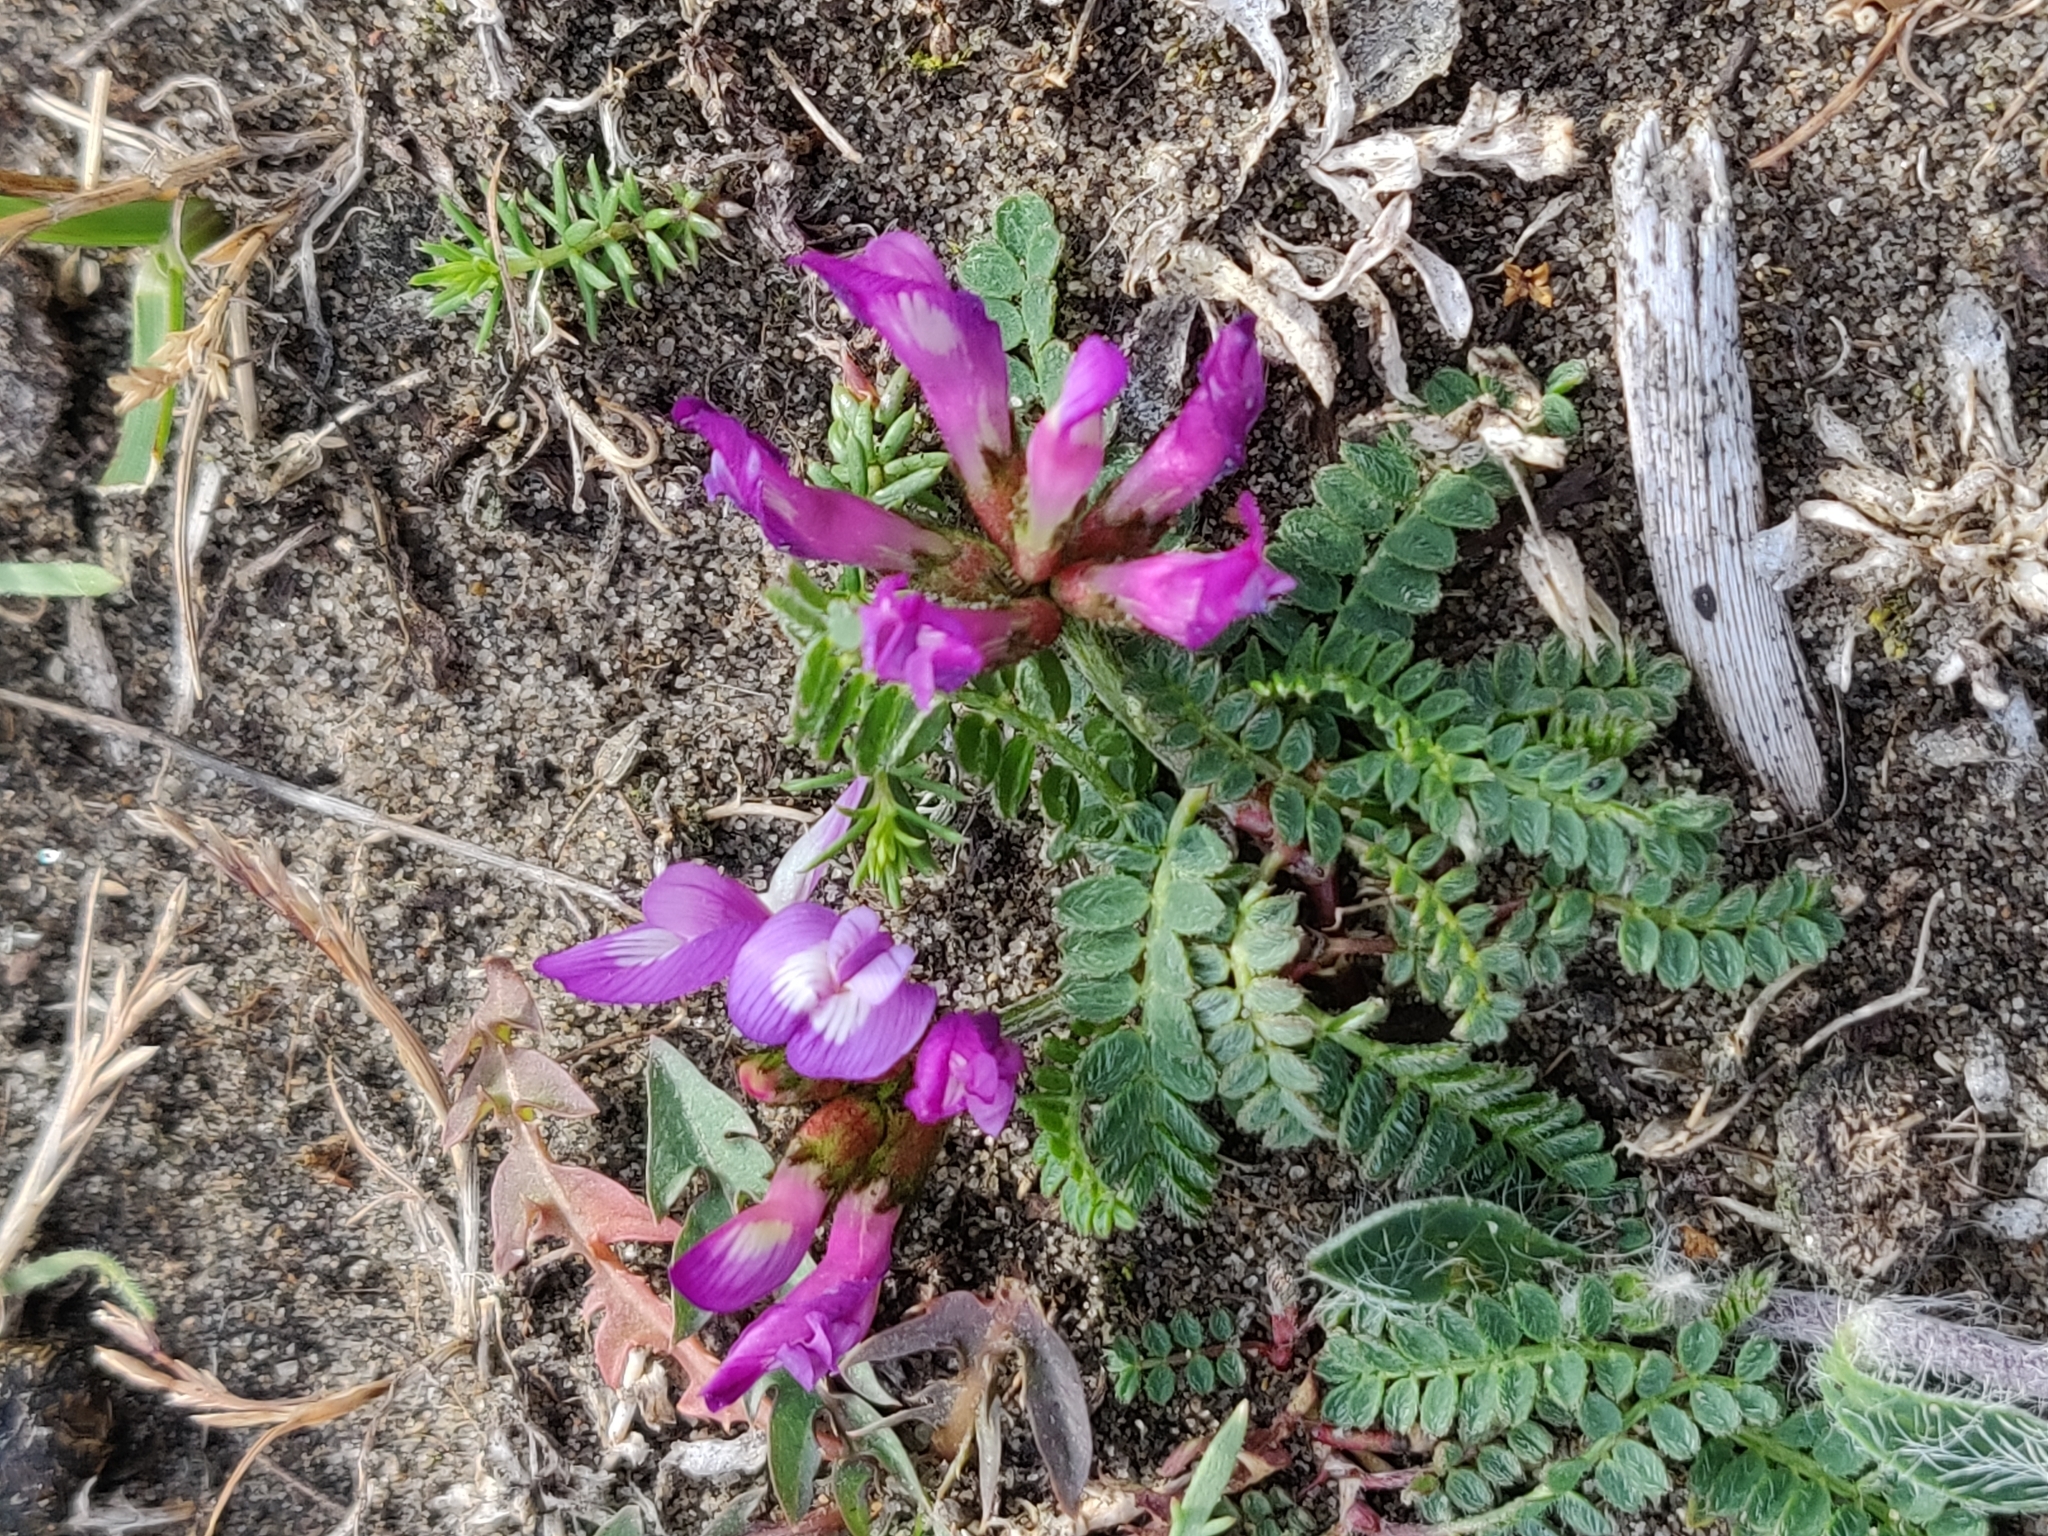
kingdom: Plantae
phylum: Tracheophyta
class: Magnoliopsida
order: Fabales
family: Fabaceae
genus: Astragalus
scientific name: Astragalus danicus
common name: Purple milk-vetch
